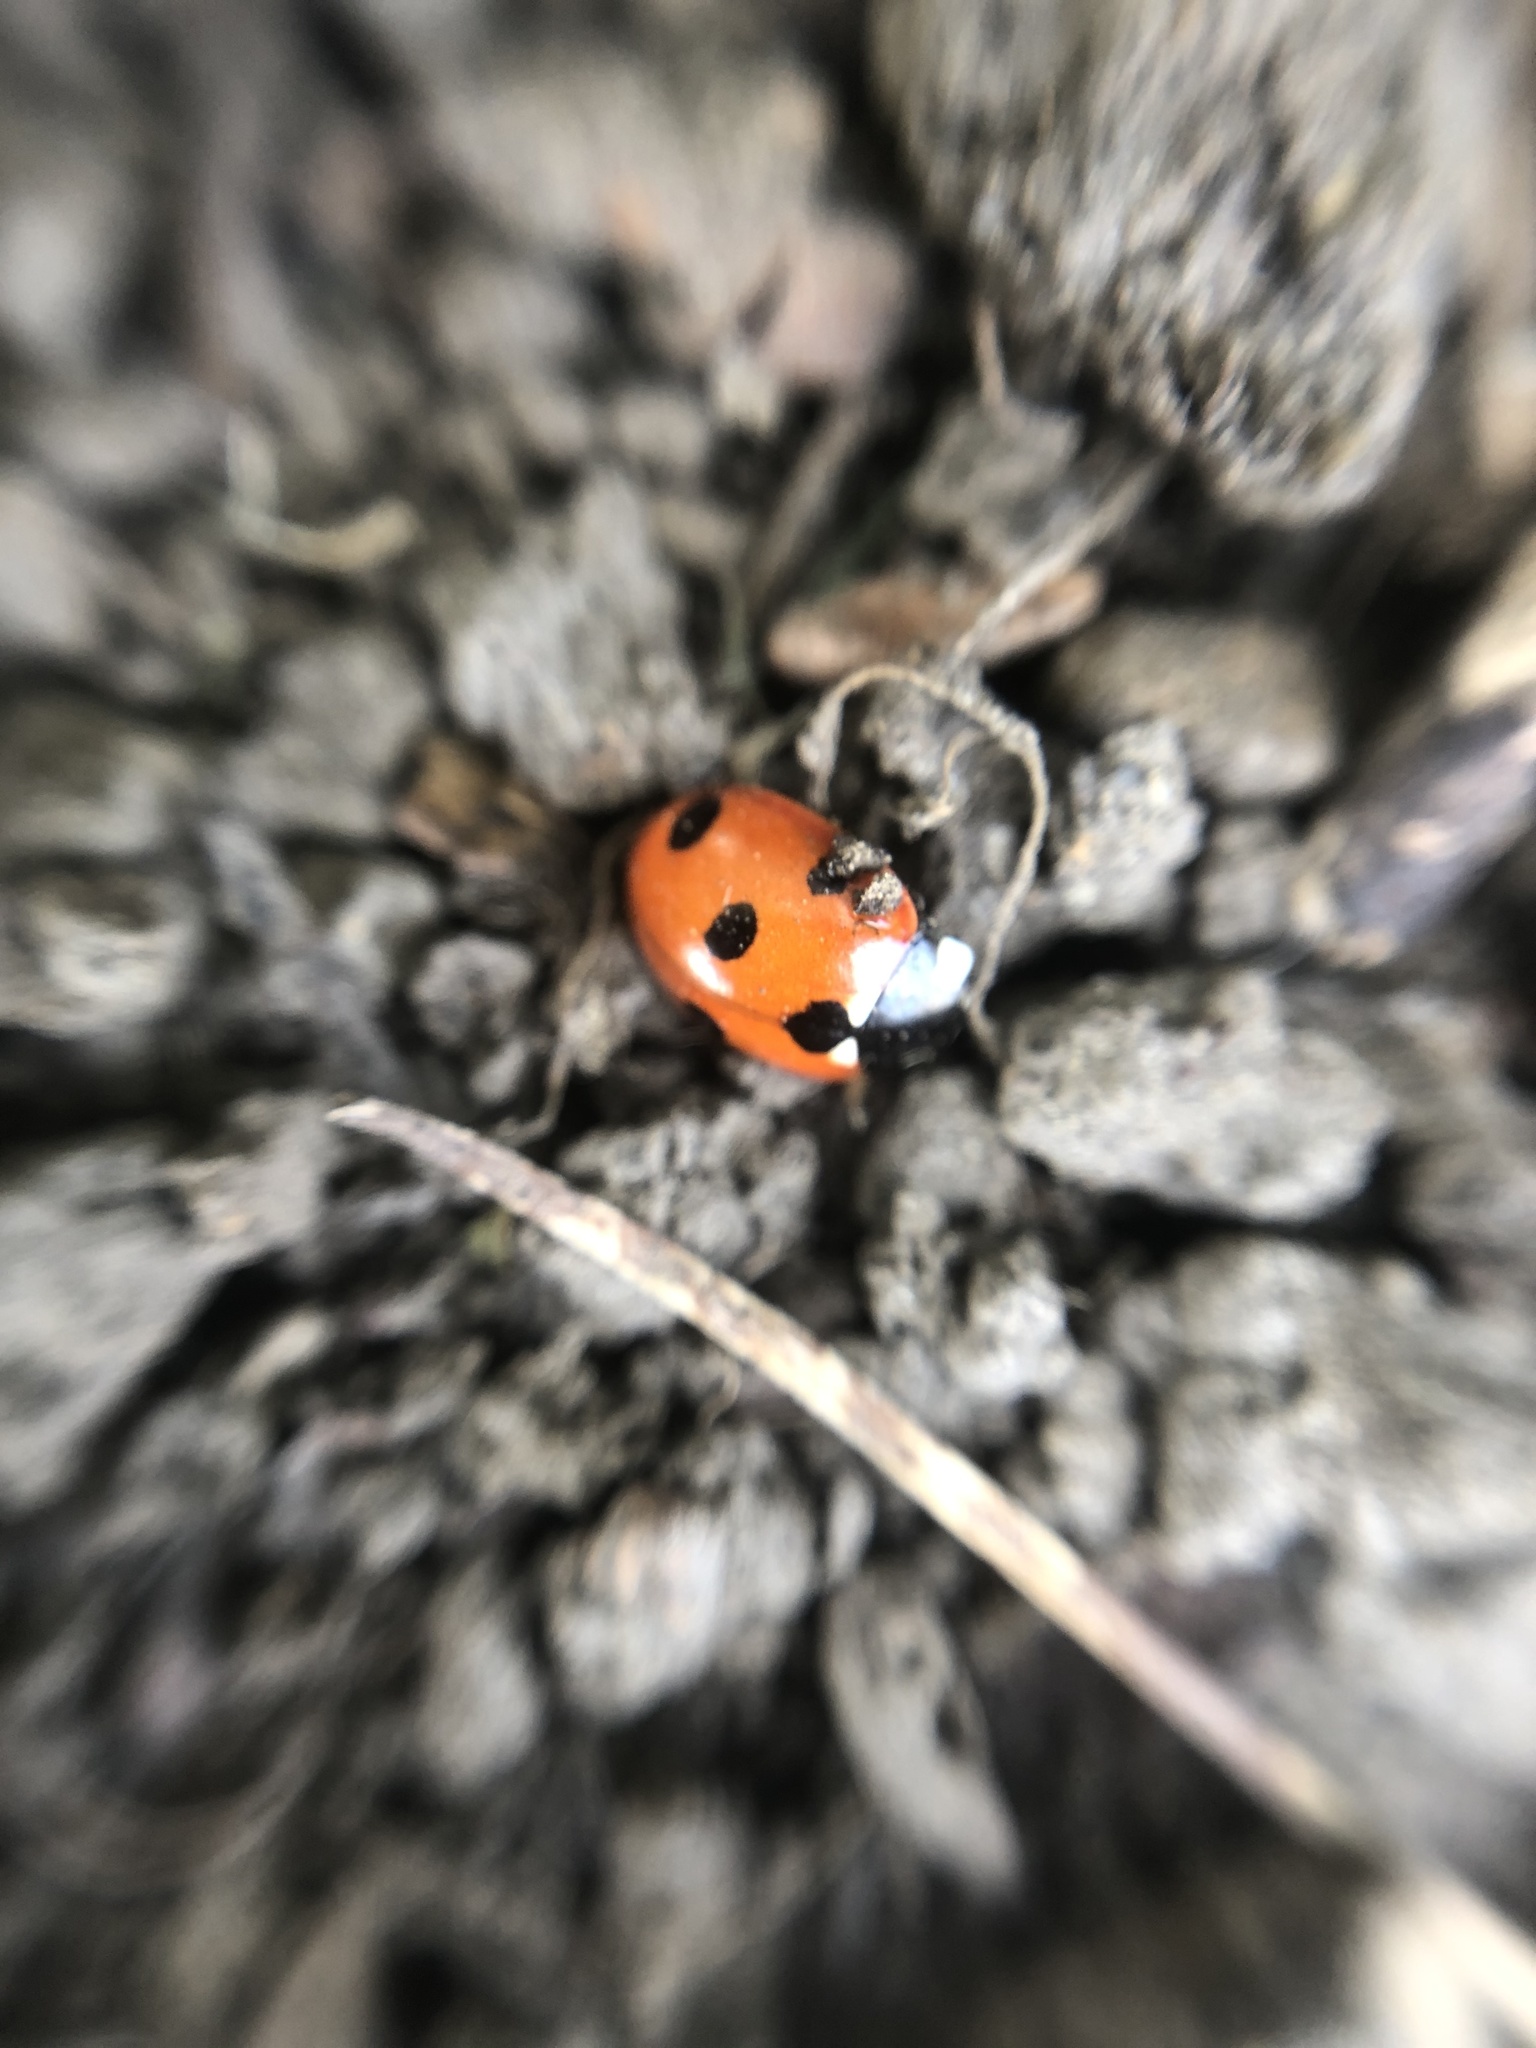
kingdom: Animalia
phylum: Arthropoda
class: Insecta
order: Coleoptera
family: Coccinellidae
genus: Coccinella
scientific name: Coccinella septempunctata
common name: Sevenspotted lady beetle
